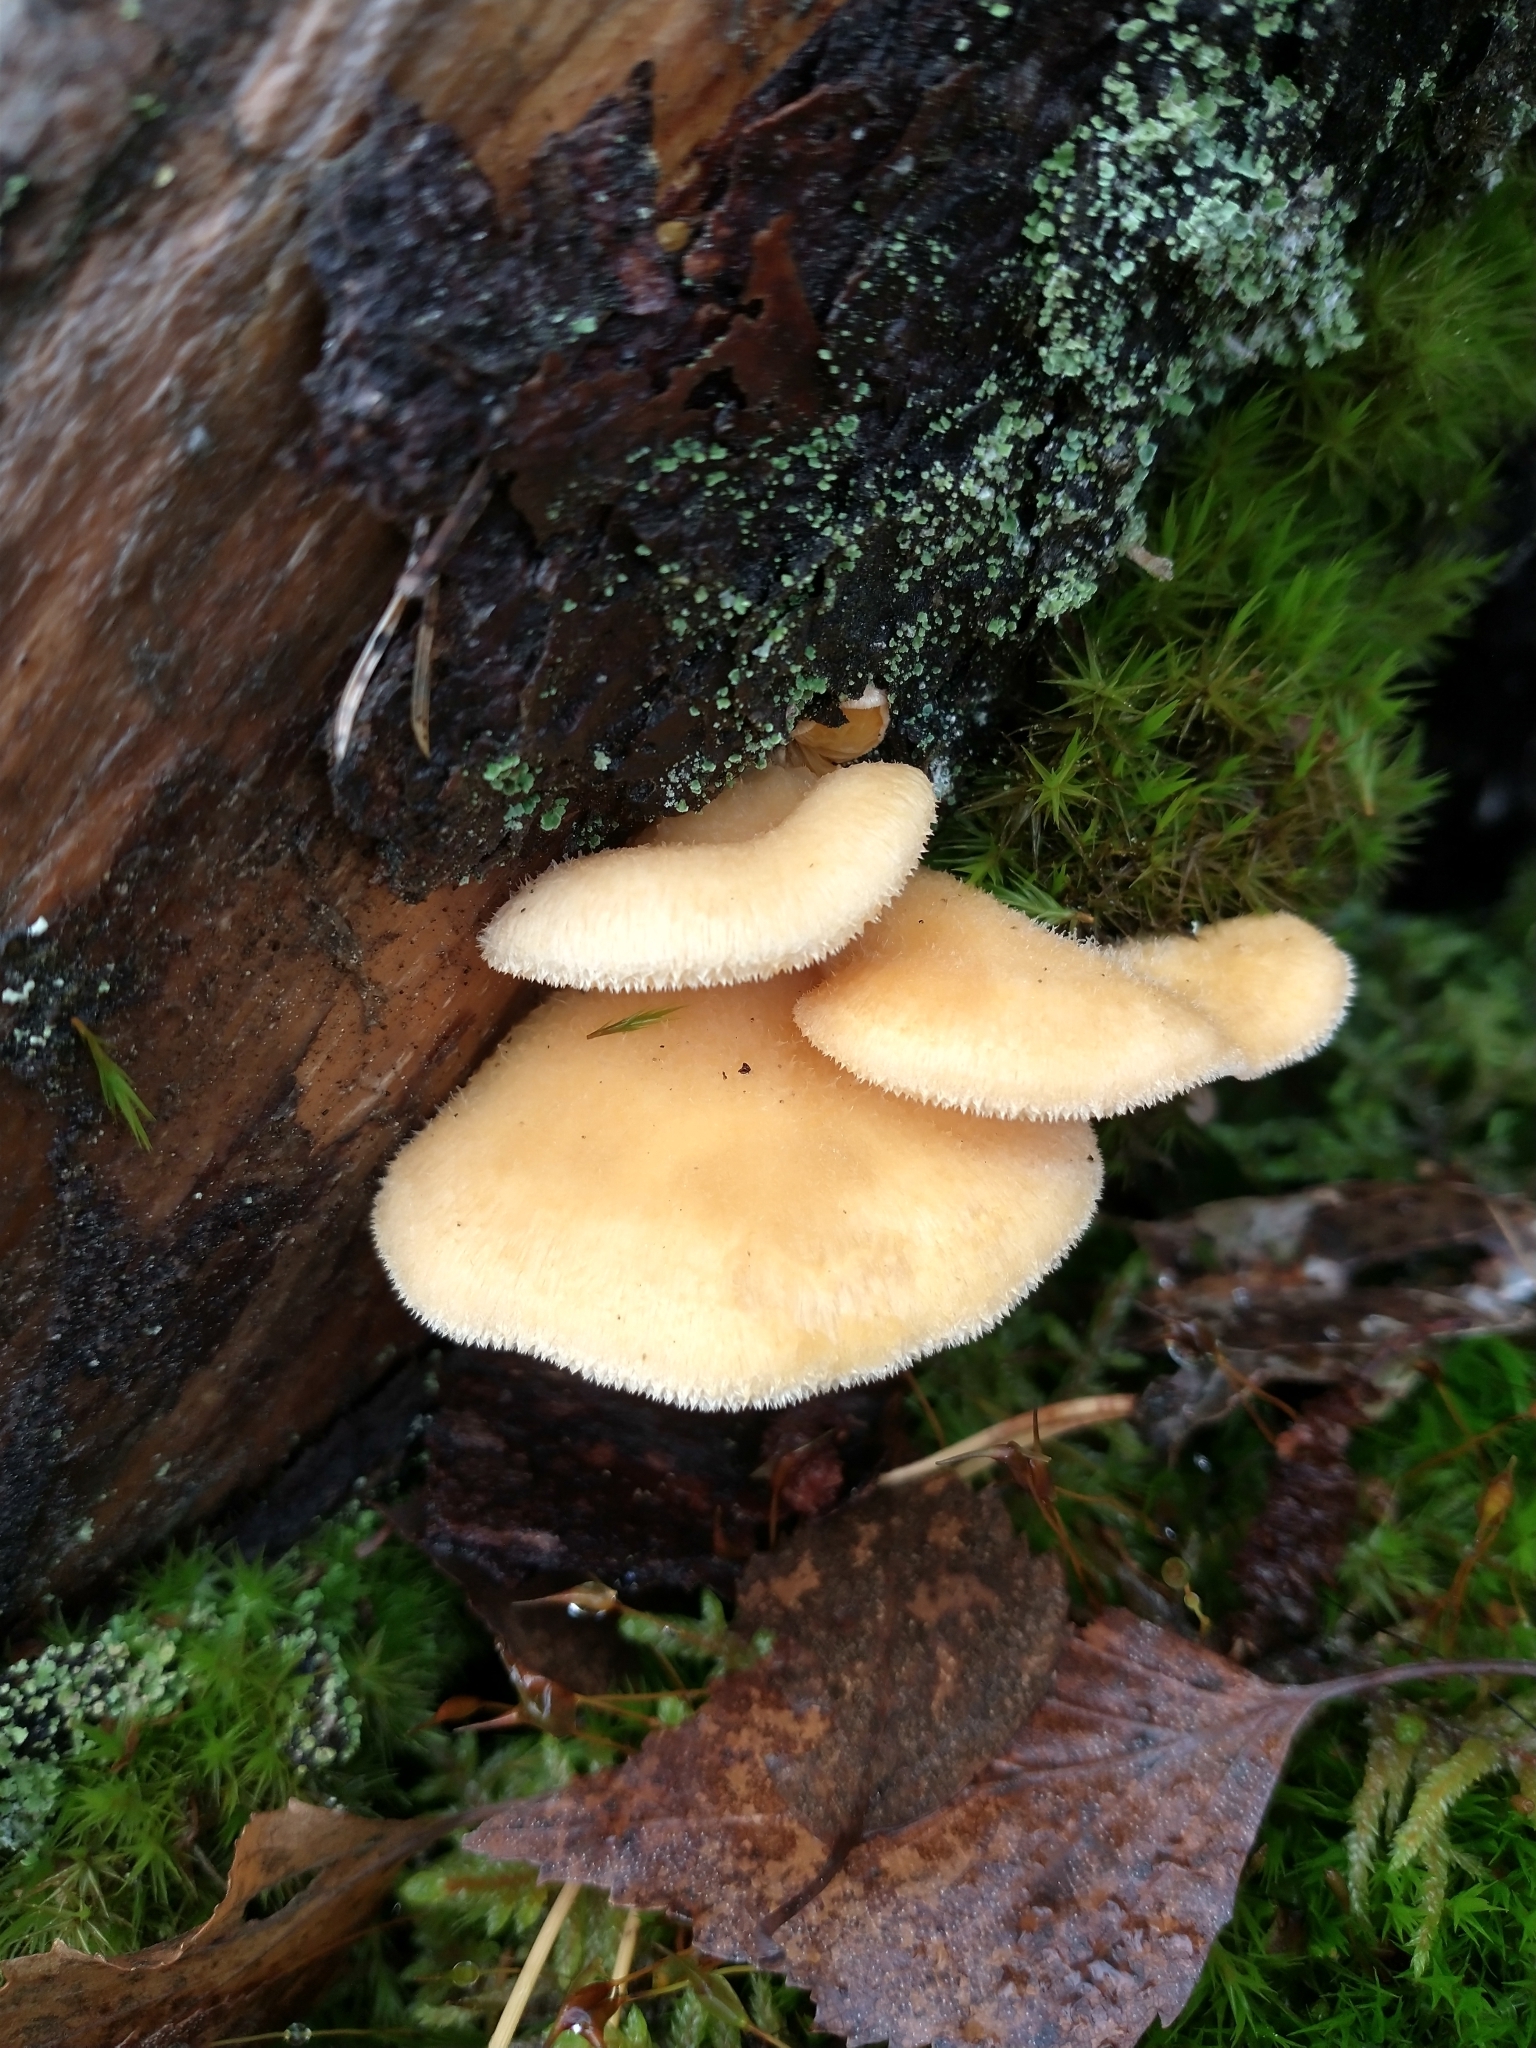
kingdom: Fungi
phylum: Basidiomycota
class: Agaricomycetes
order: Agaricales
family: Phyllotopsidaceae
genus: Phyllotopsis
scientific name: Phyllotopsis nidulans
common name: Orange mock oyster
